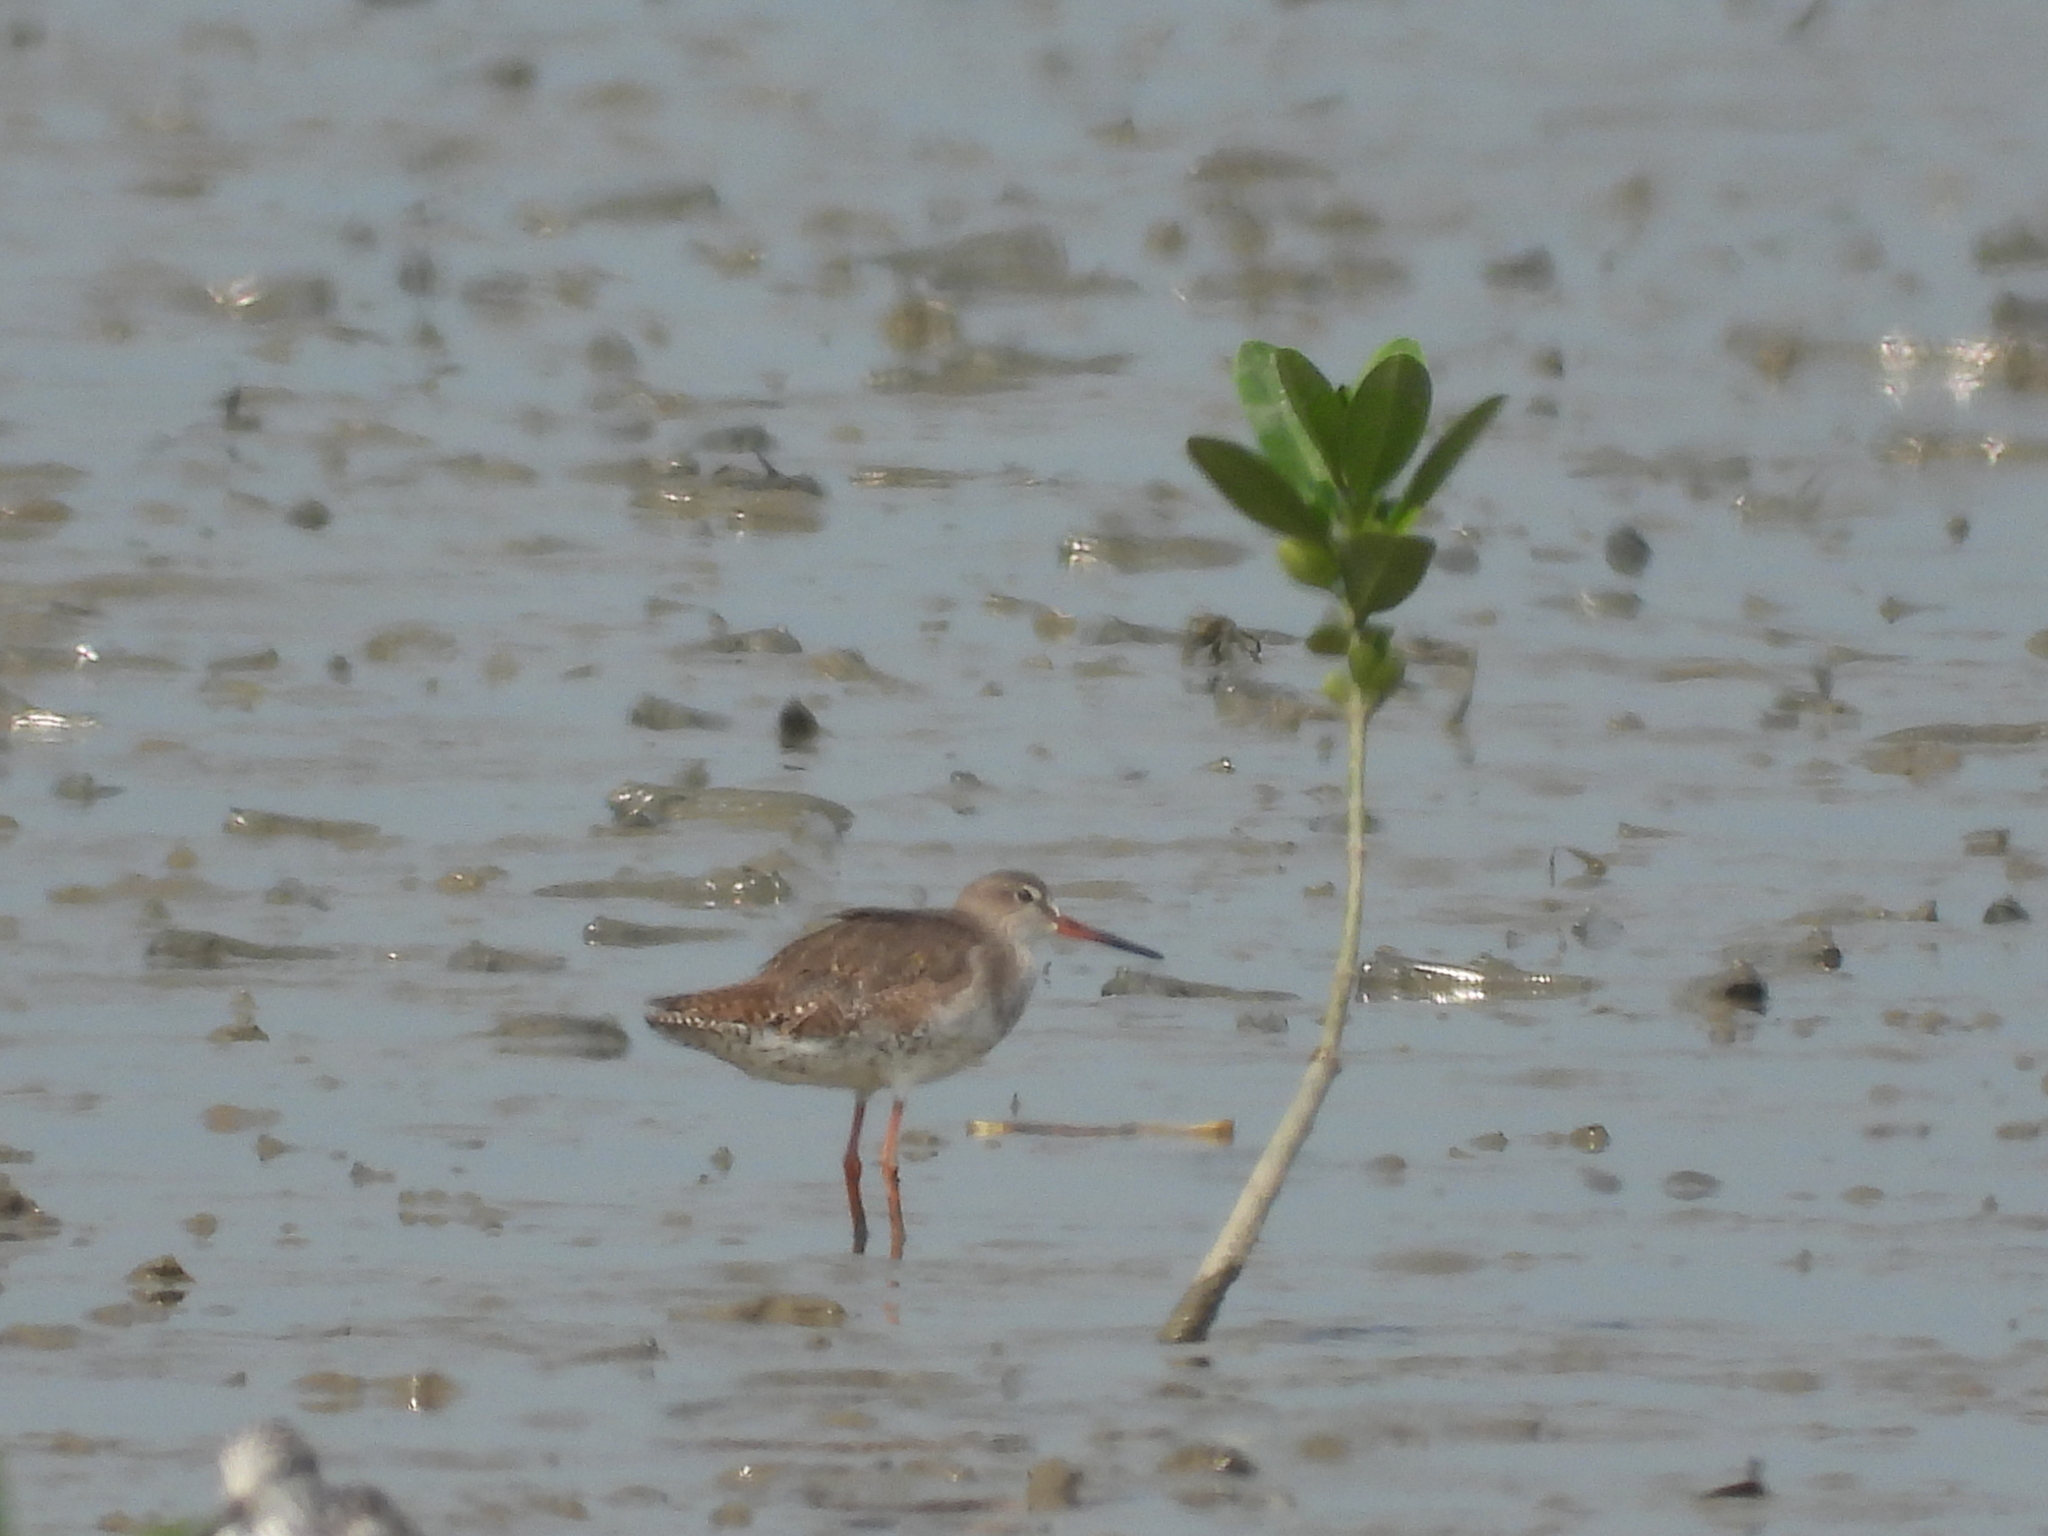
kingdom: Animalia
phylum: Chordata
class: Aves
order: Charadriiformes
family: Scolopacidae
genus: Tringa
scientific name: Tringa totanus
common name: Common redshank
